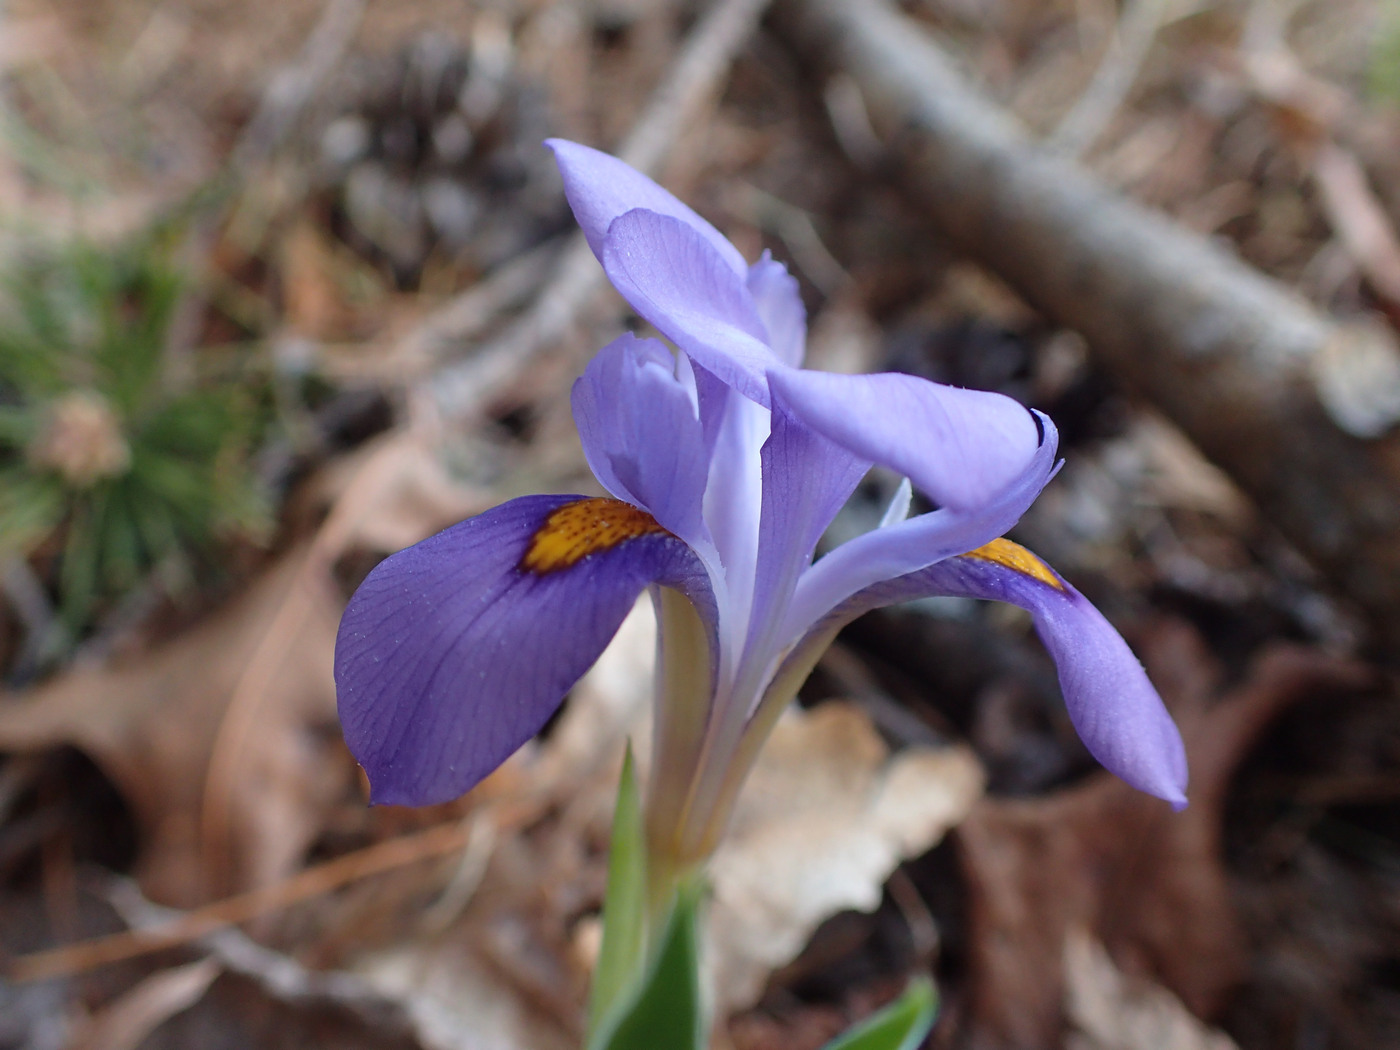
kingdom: Plantae
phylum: Tracheophyta
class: Liliopsida
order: Asparagales
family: Iridaceae
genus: Iris
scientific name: Iris verna
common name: Dwarf iris
